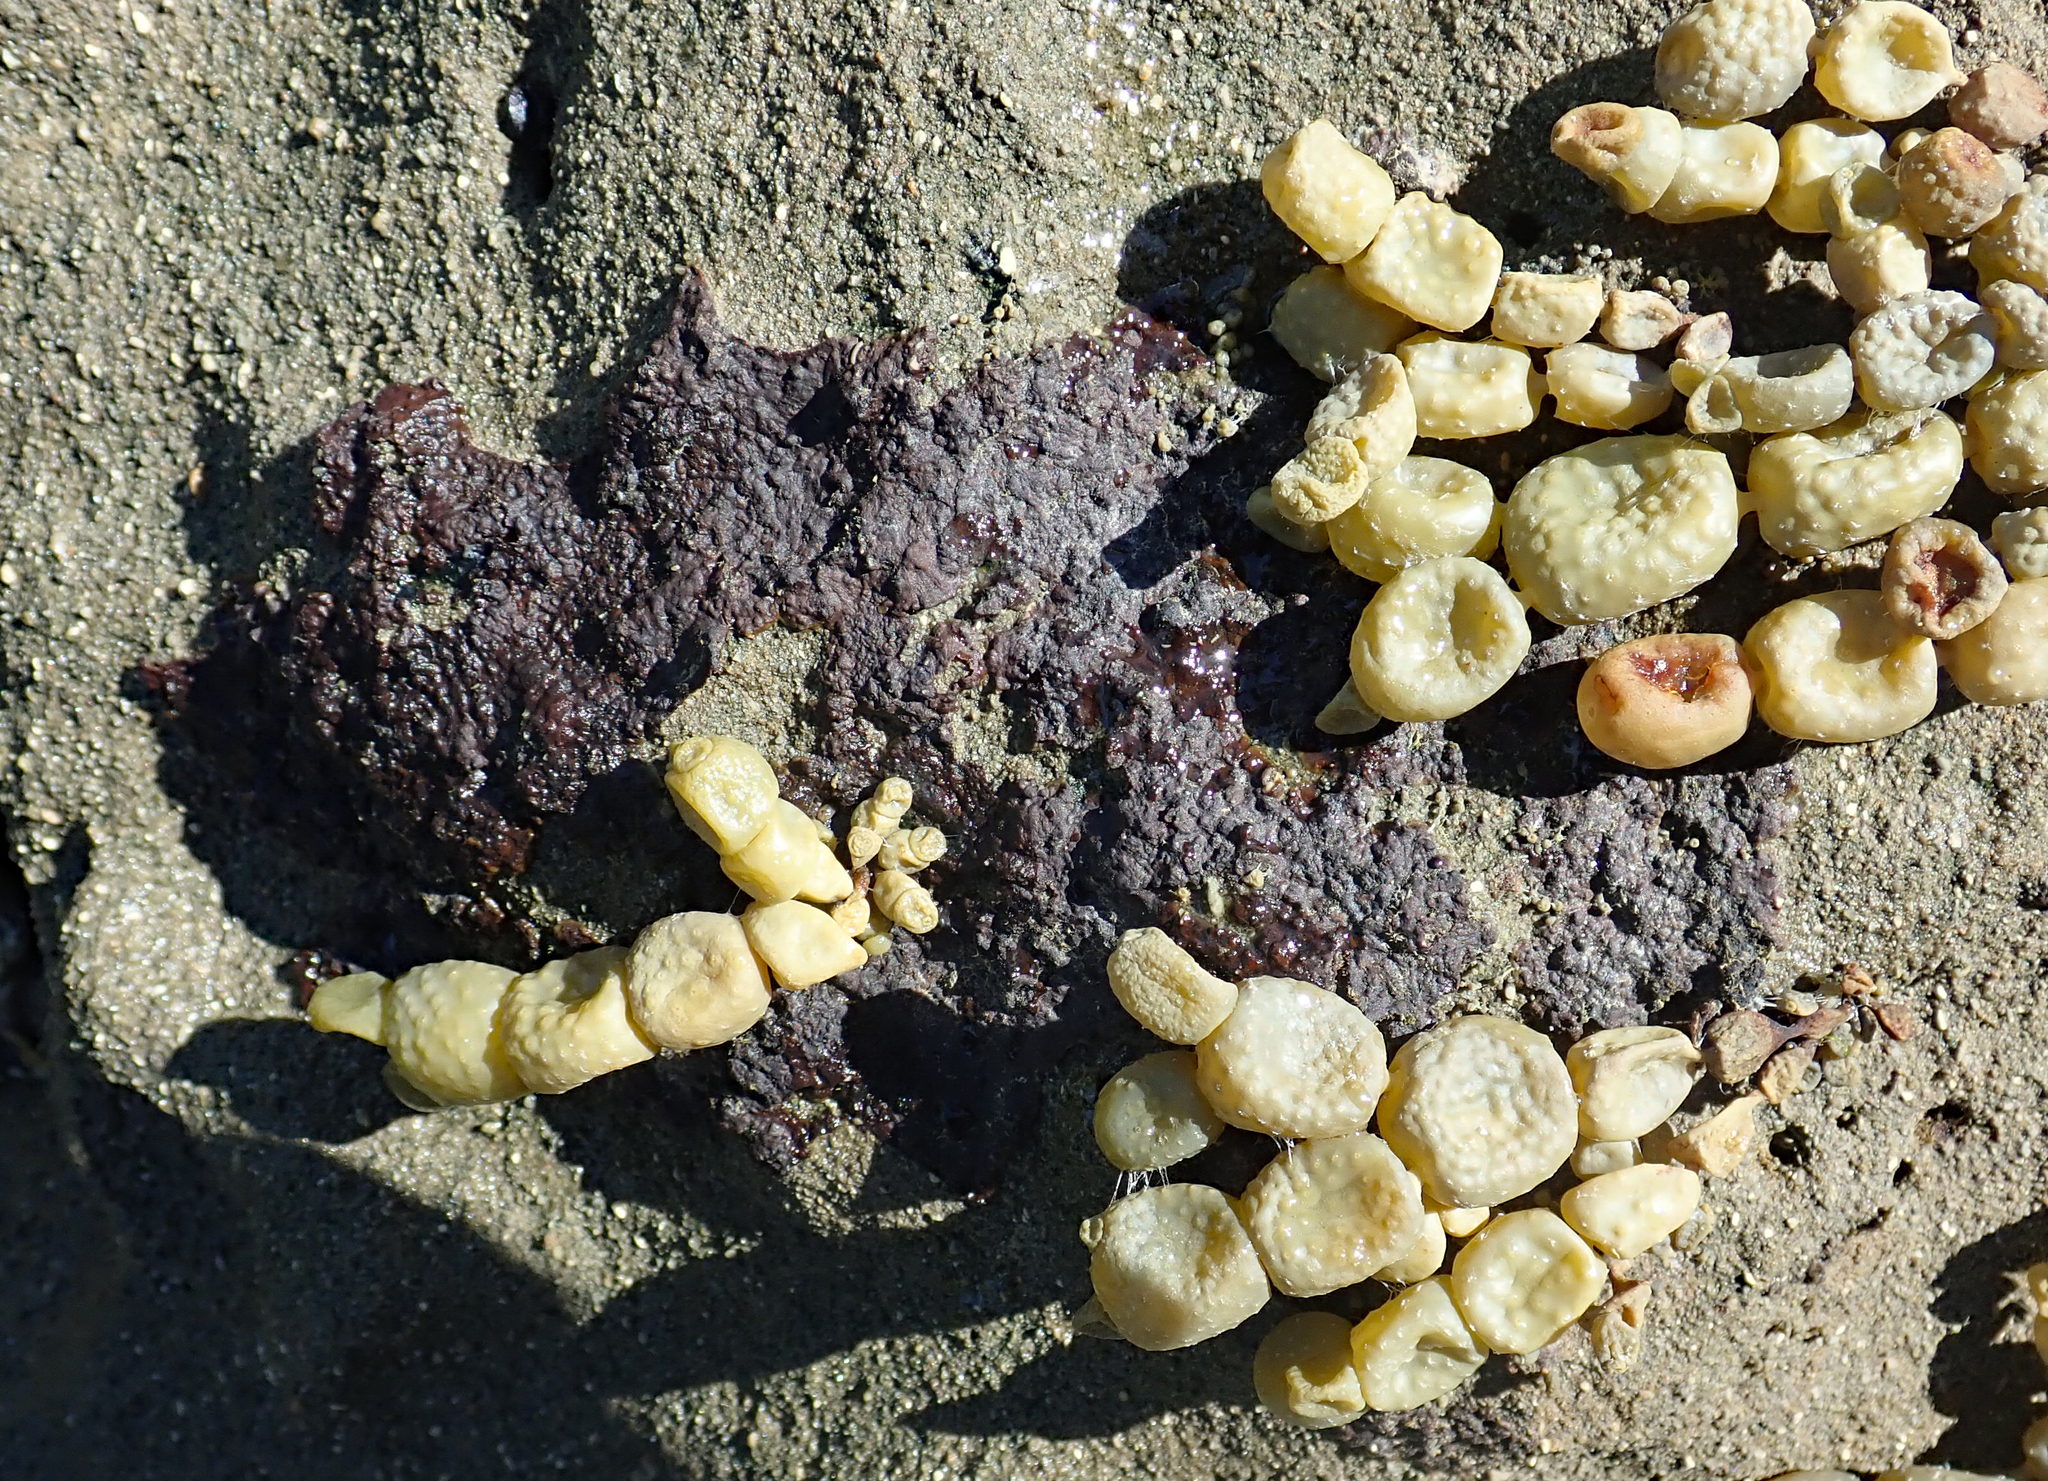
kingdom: Animalia
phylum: Arthropoda
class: Diplura
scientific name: Diplura
